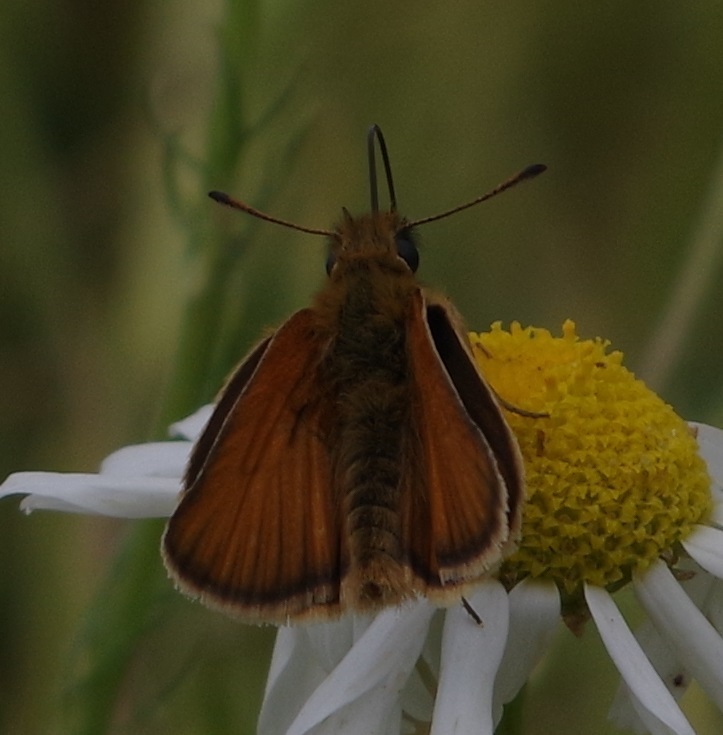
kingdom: Animalia
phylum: Arthropoda
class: Insecta
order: Lepidoptera
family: Hesperiidae
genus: Thymelicus
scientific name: Thymelicus lineola
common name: Essex skipper
